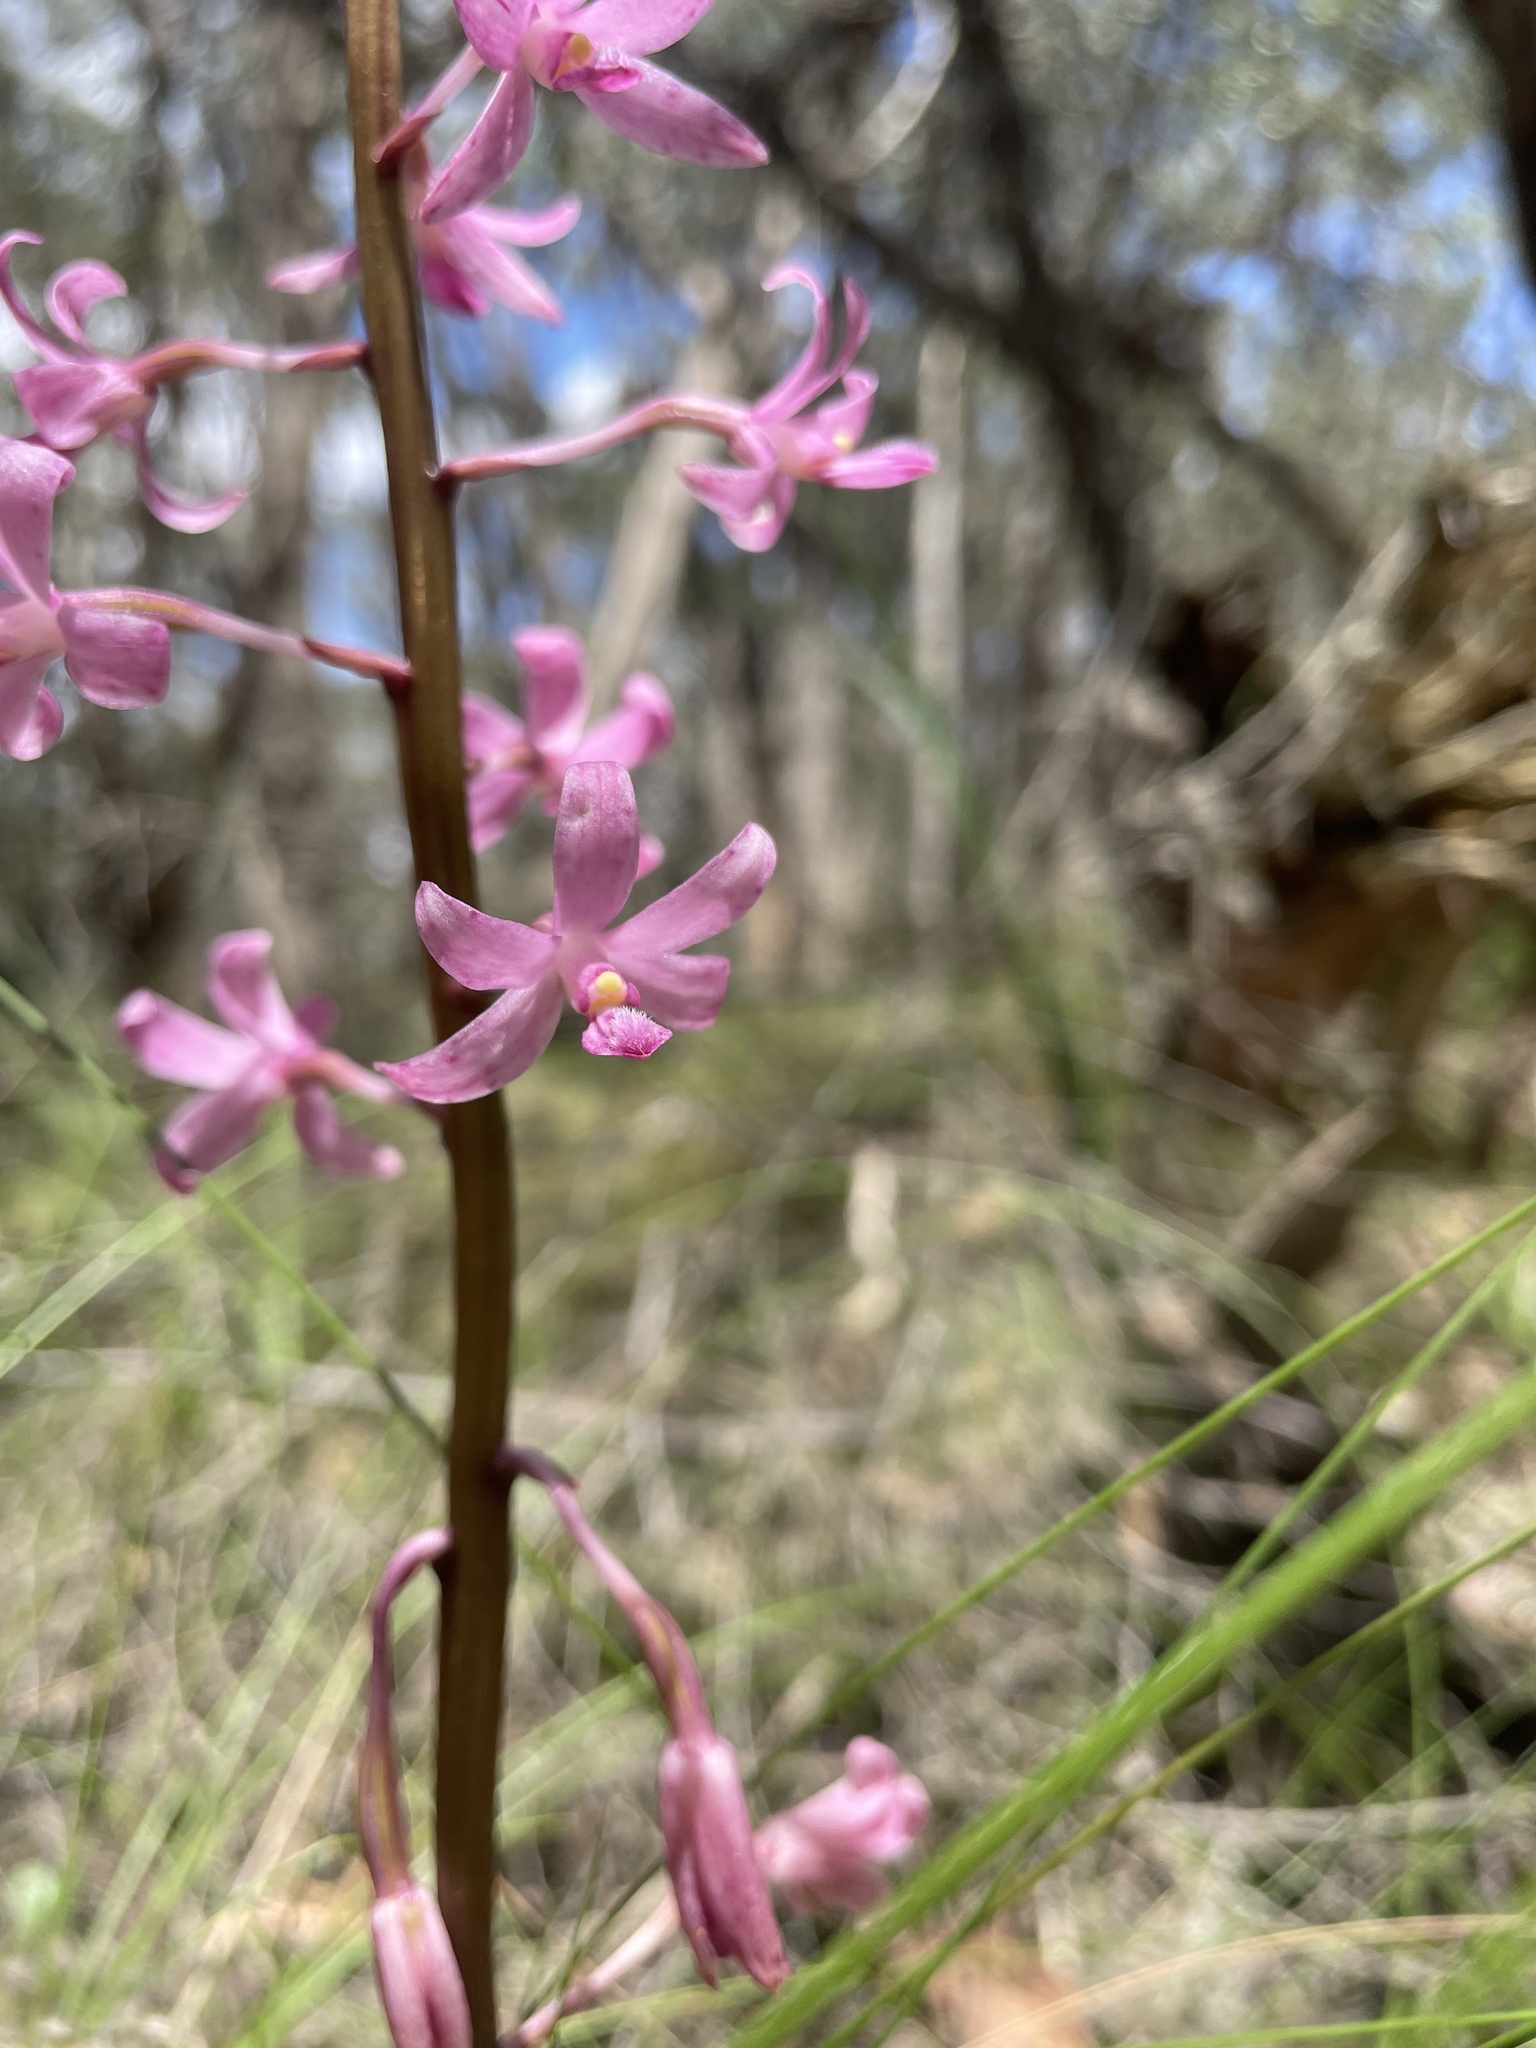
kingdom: Plantae
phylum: Tracheophyta
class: Liliopsida
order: Asparagales
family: Orchidaceae
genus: Dipodium
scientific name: Dipodium roseum
